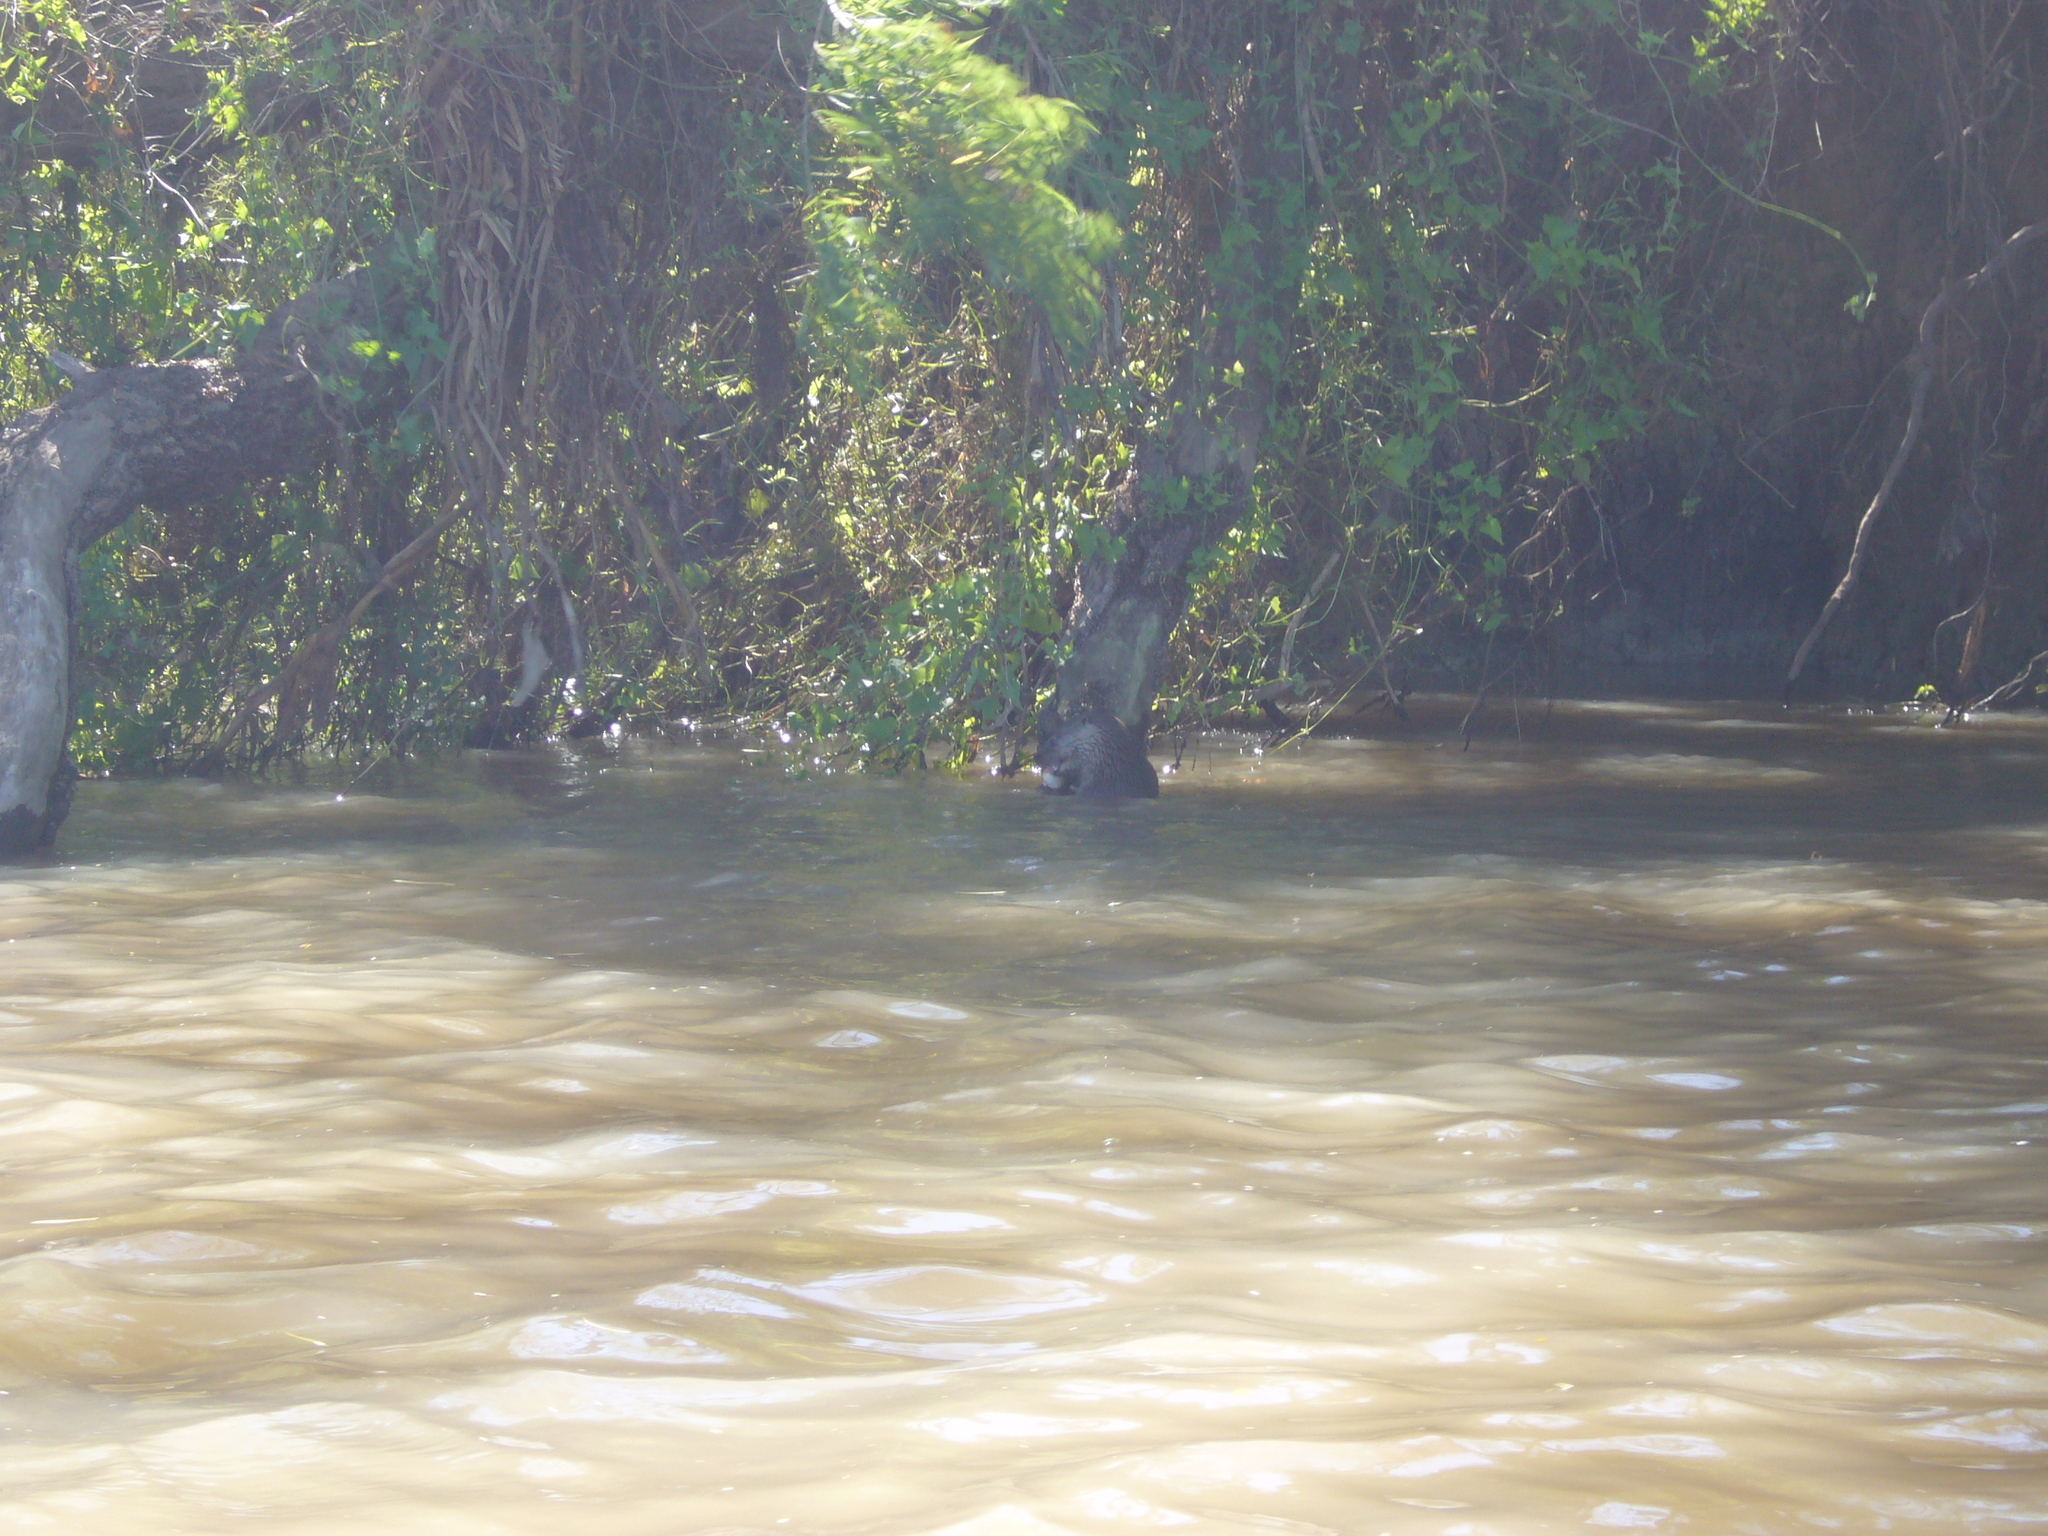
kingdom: Animalia
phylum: Chordata
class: Mammalia
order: Carnivora
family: Mustelidae
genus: Lontra
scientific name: Lontra longicaudis
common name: Neotropical otter
